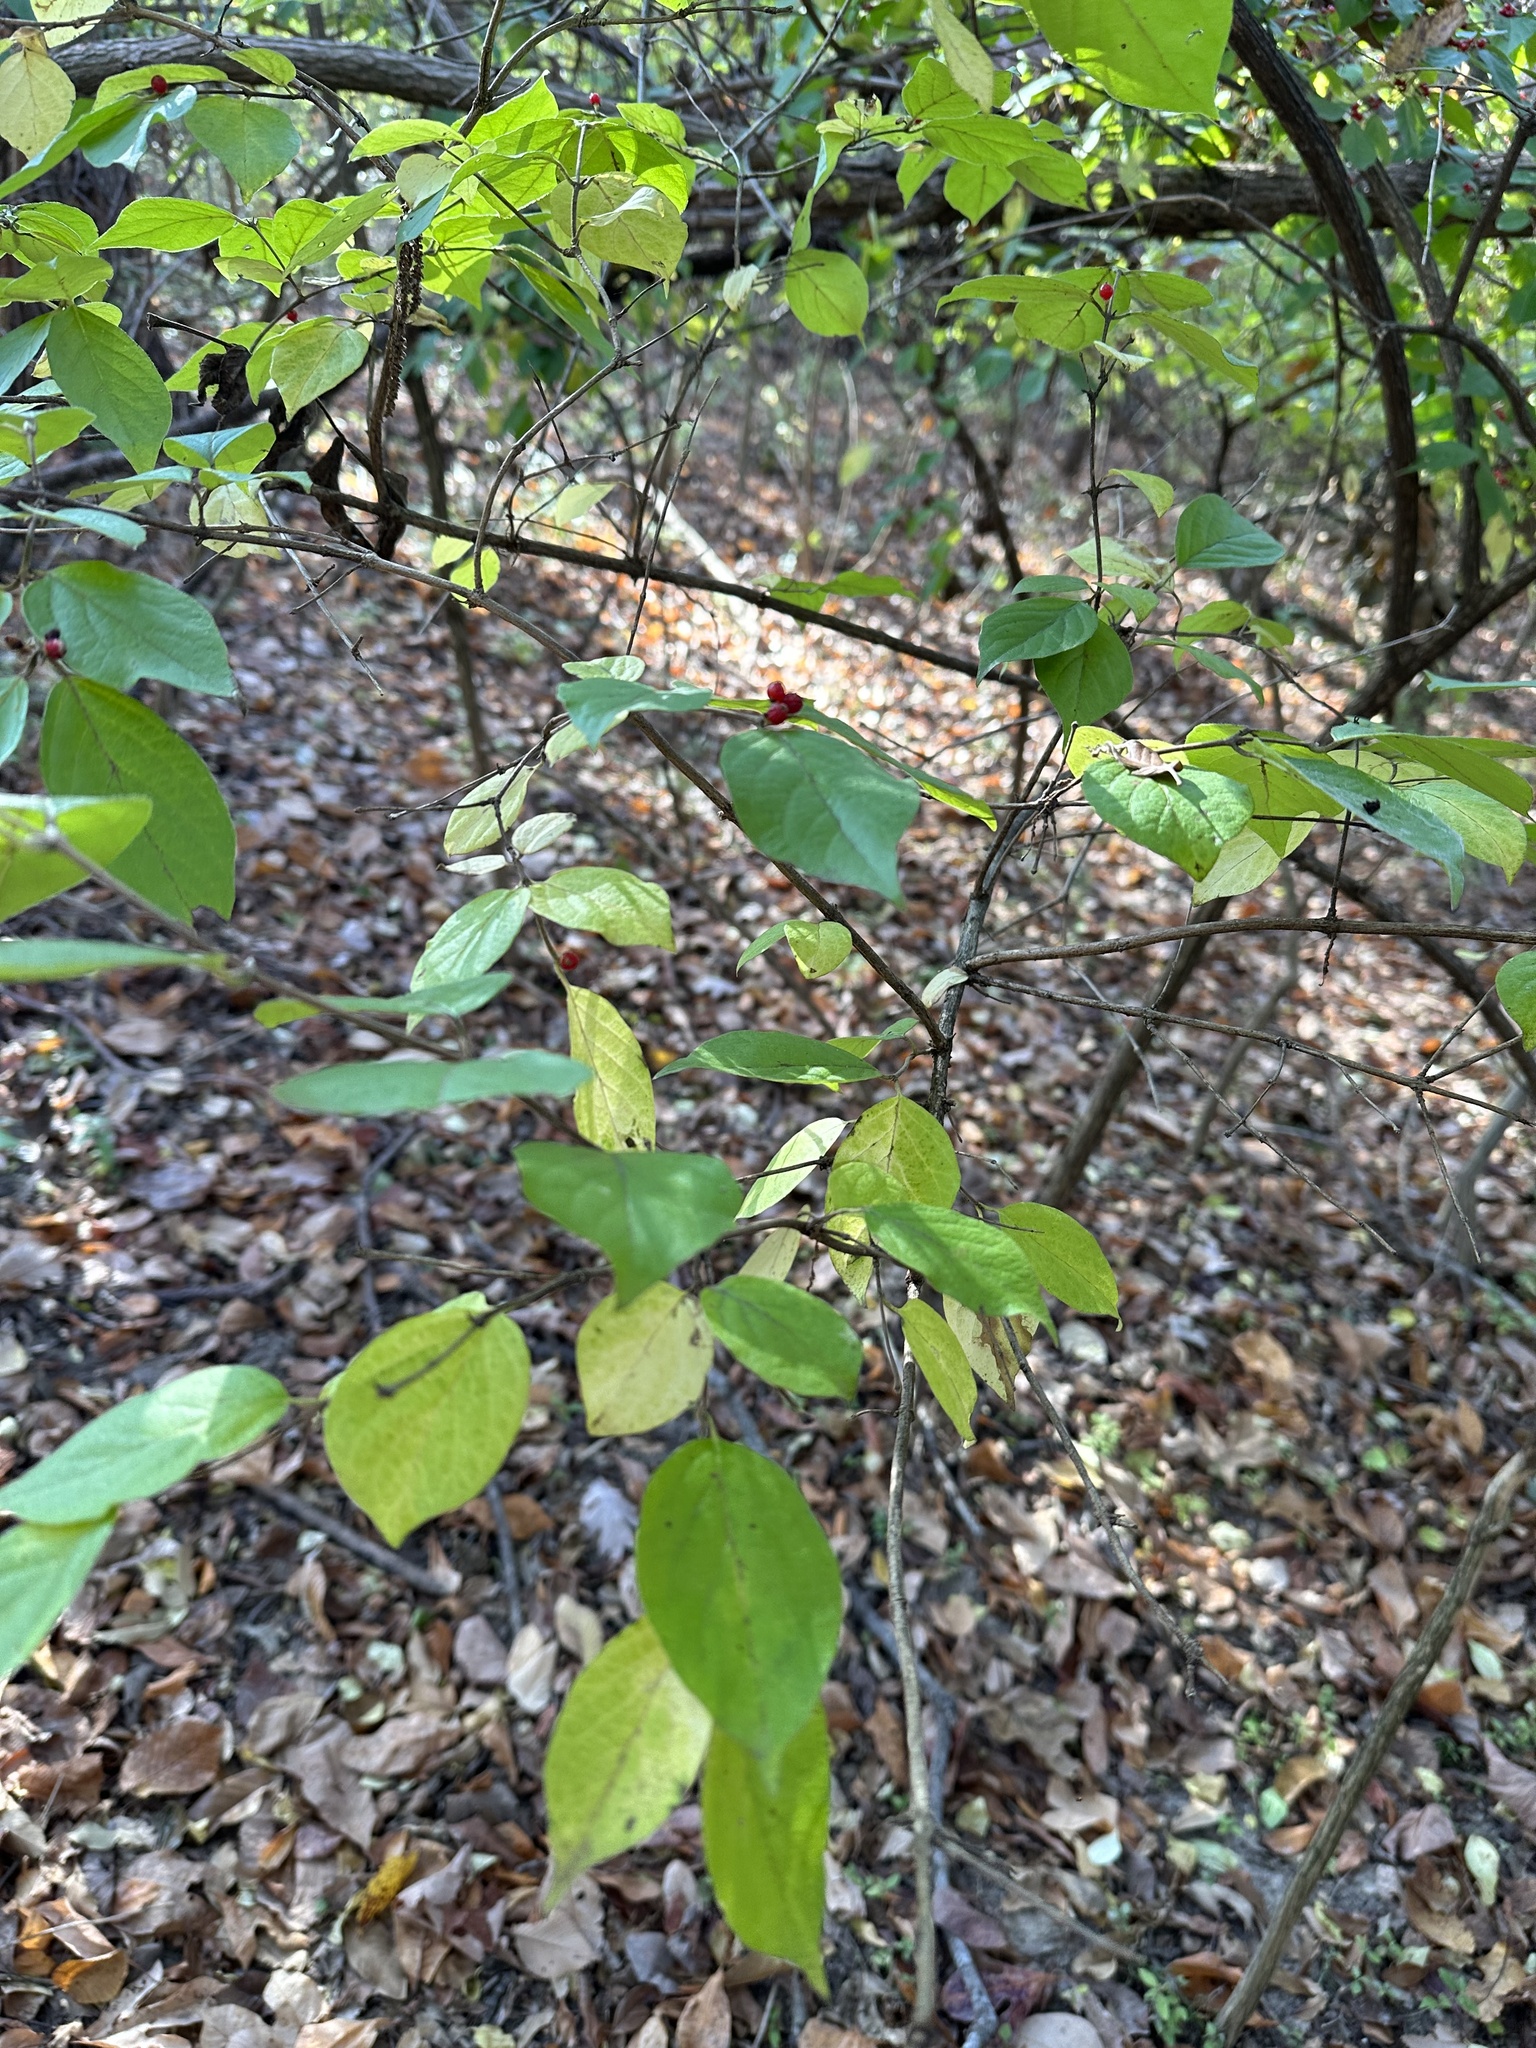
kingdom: Plantae
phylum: Tracheophyta
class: Magnoliopsida
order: Dipsacales
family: Caprifoliaceae
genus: Lonicera
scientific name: Lonicera maackii
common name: Amur honeysuckle
